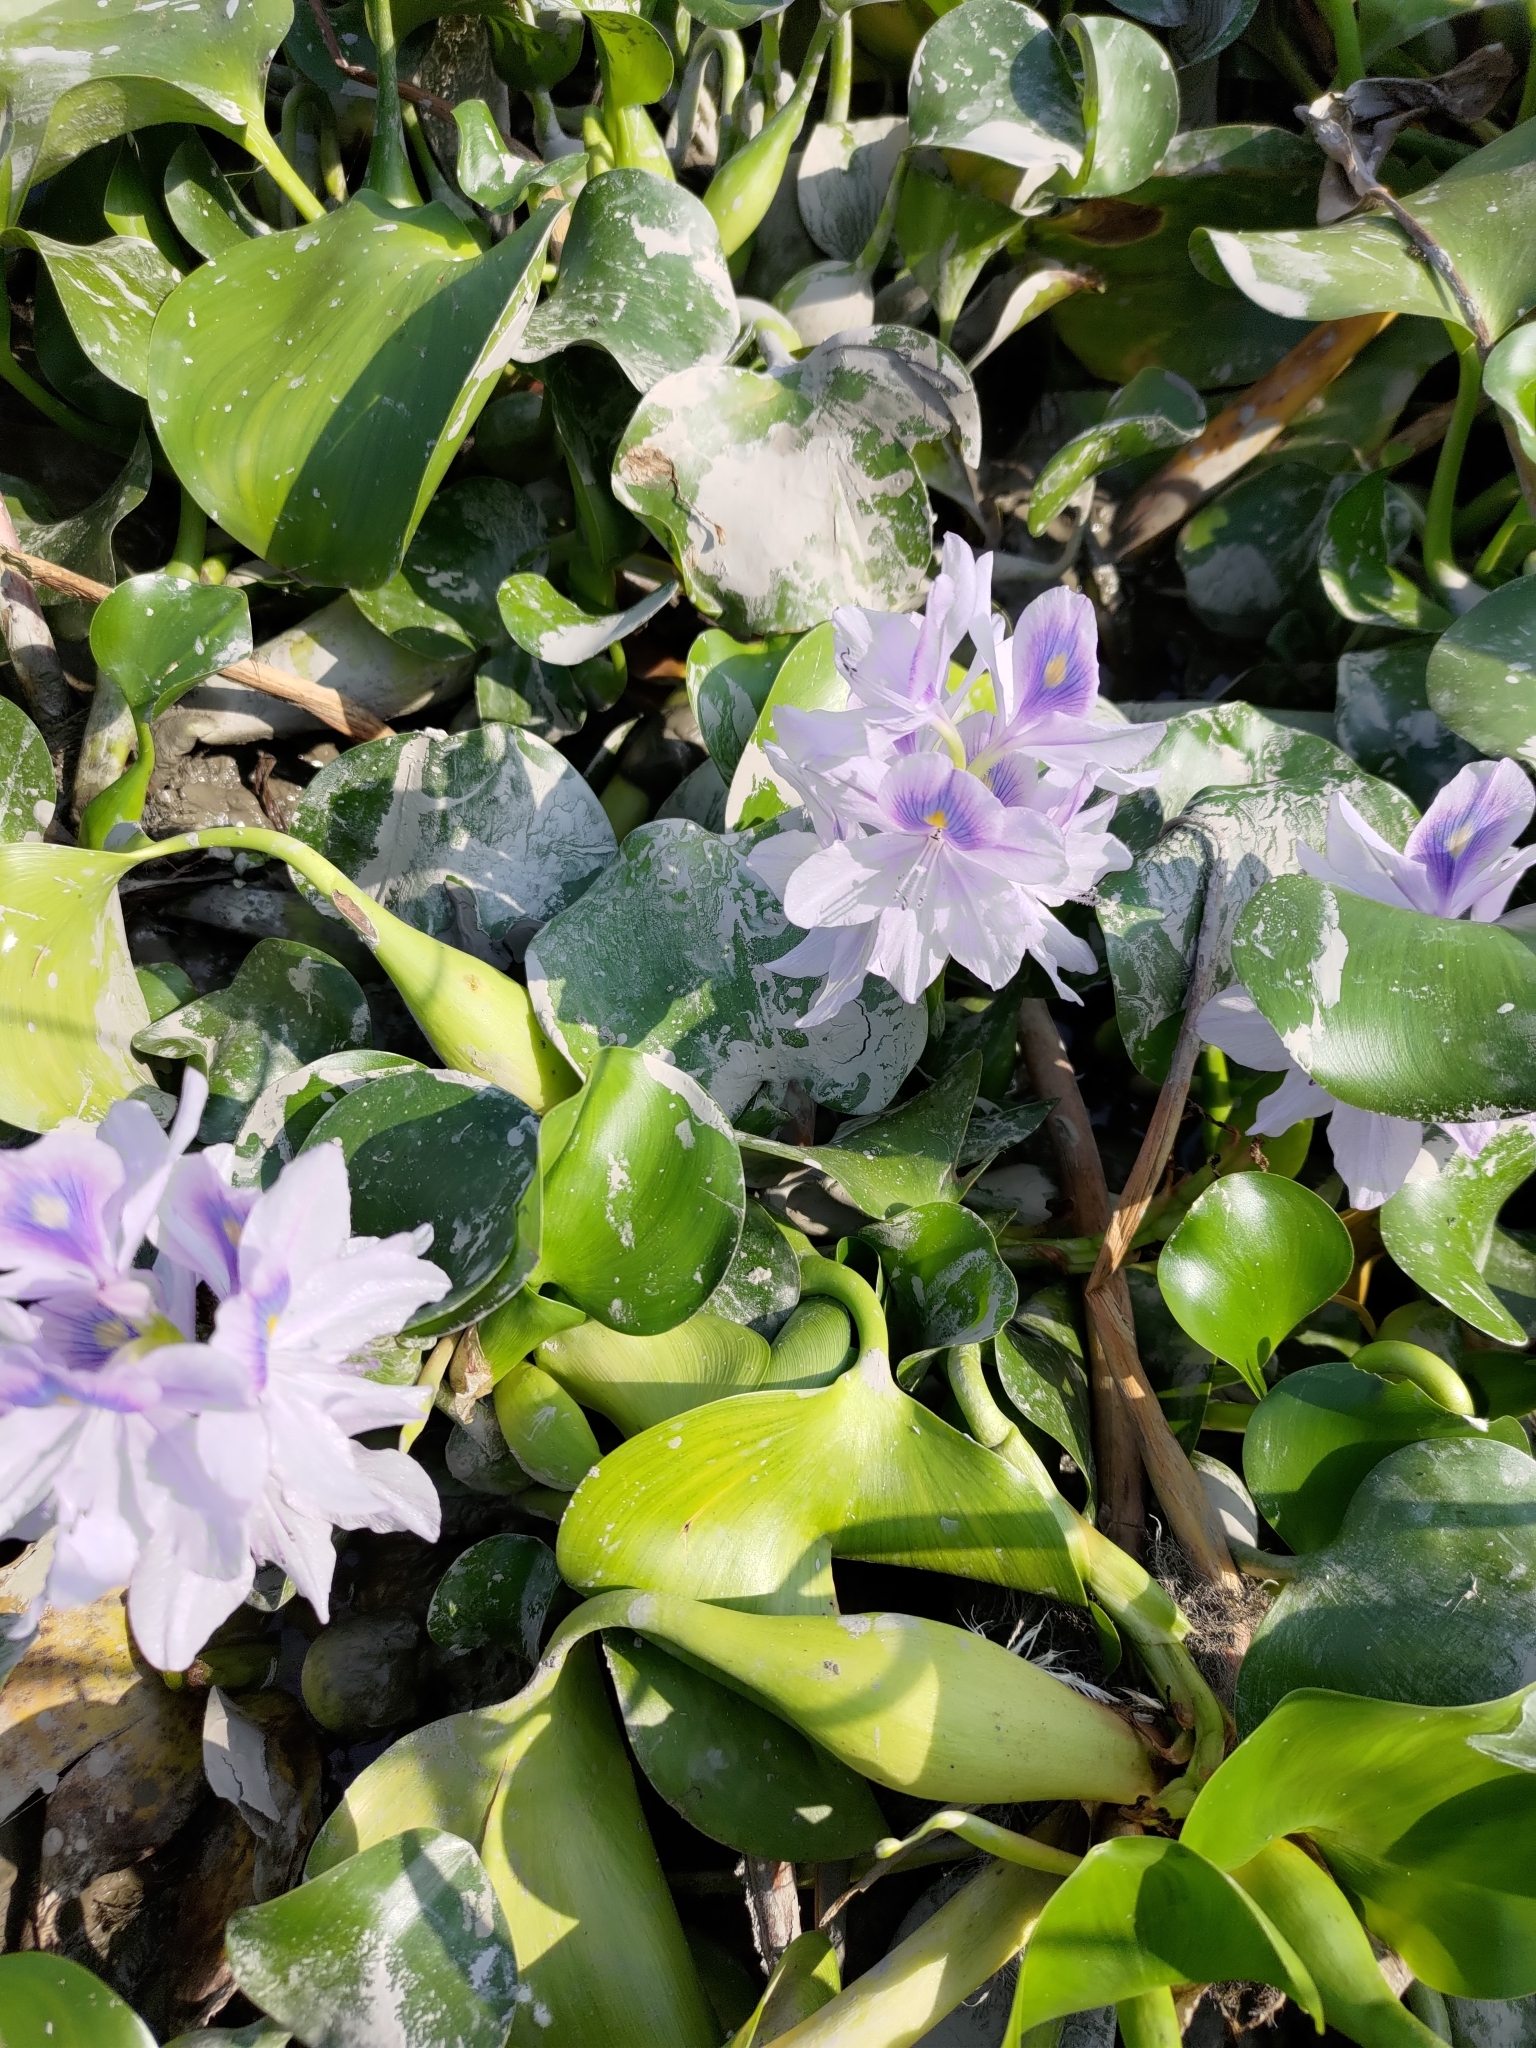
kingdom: Plantae
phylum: Tracheophyta
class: Liliopsida
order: Commelinales
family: Pontederiaceae
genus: Pontederia
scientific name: Pontederia crassipes
